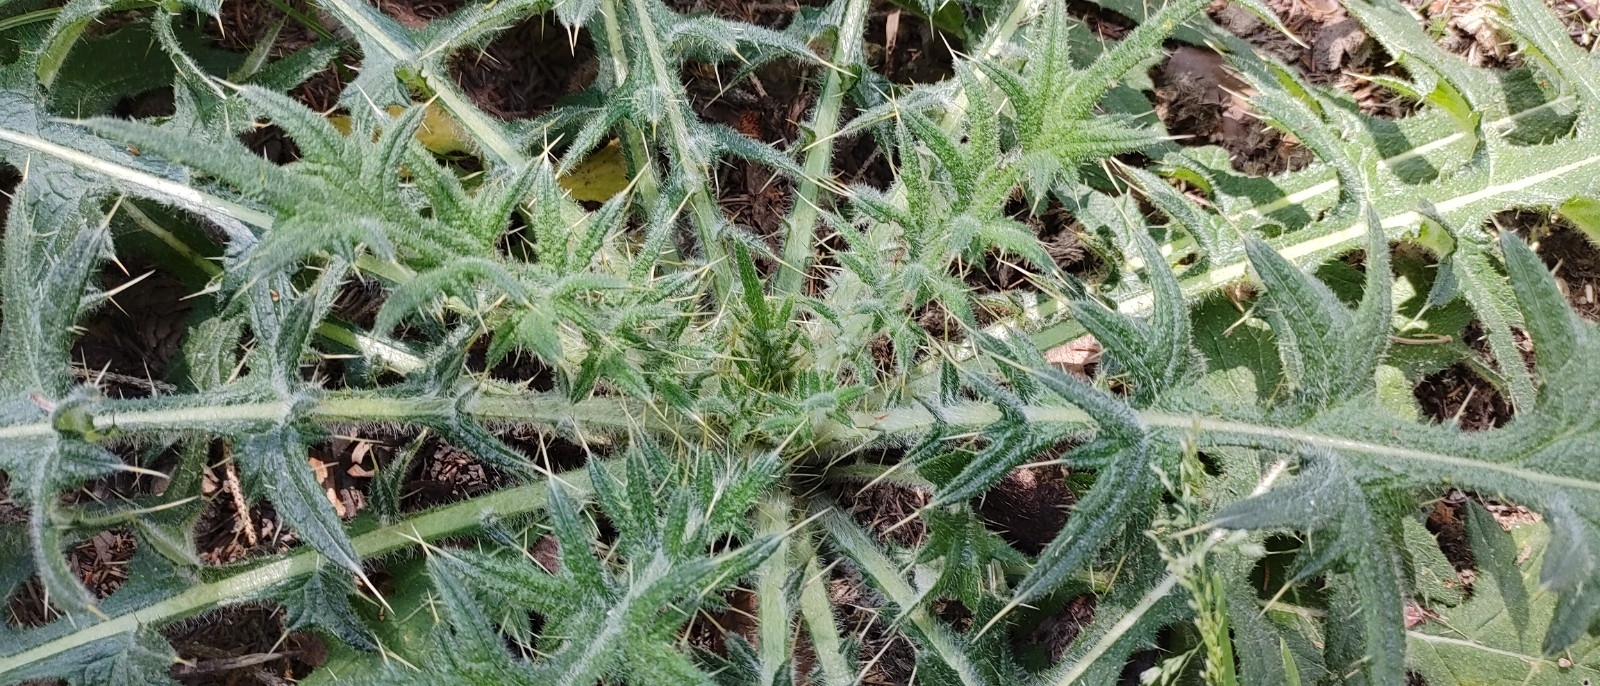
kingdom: Plantae
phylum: Tracheophyta
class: Magnoliopsida
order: Asterales
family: Asteraceae
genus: Cirsium
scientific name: Cirsium vulgare
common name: Bull thistle
